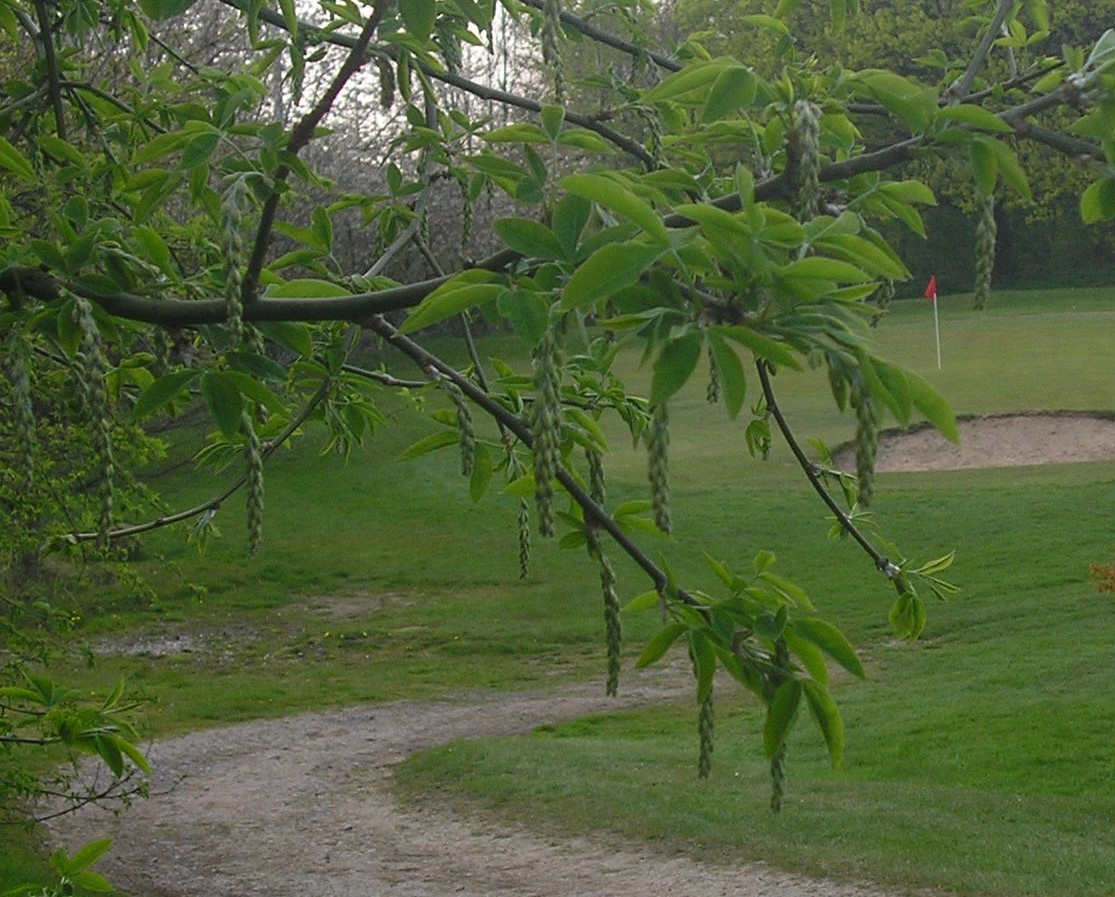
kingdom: Plantae
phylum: Tracheophyta
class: Magnoliopsida
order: Fabales
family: Fabaceae
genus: Laburnum
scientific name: Laburnum anagyroides
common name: Laburnum
